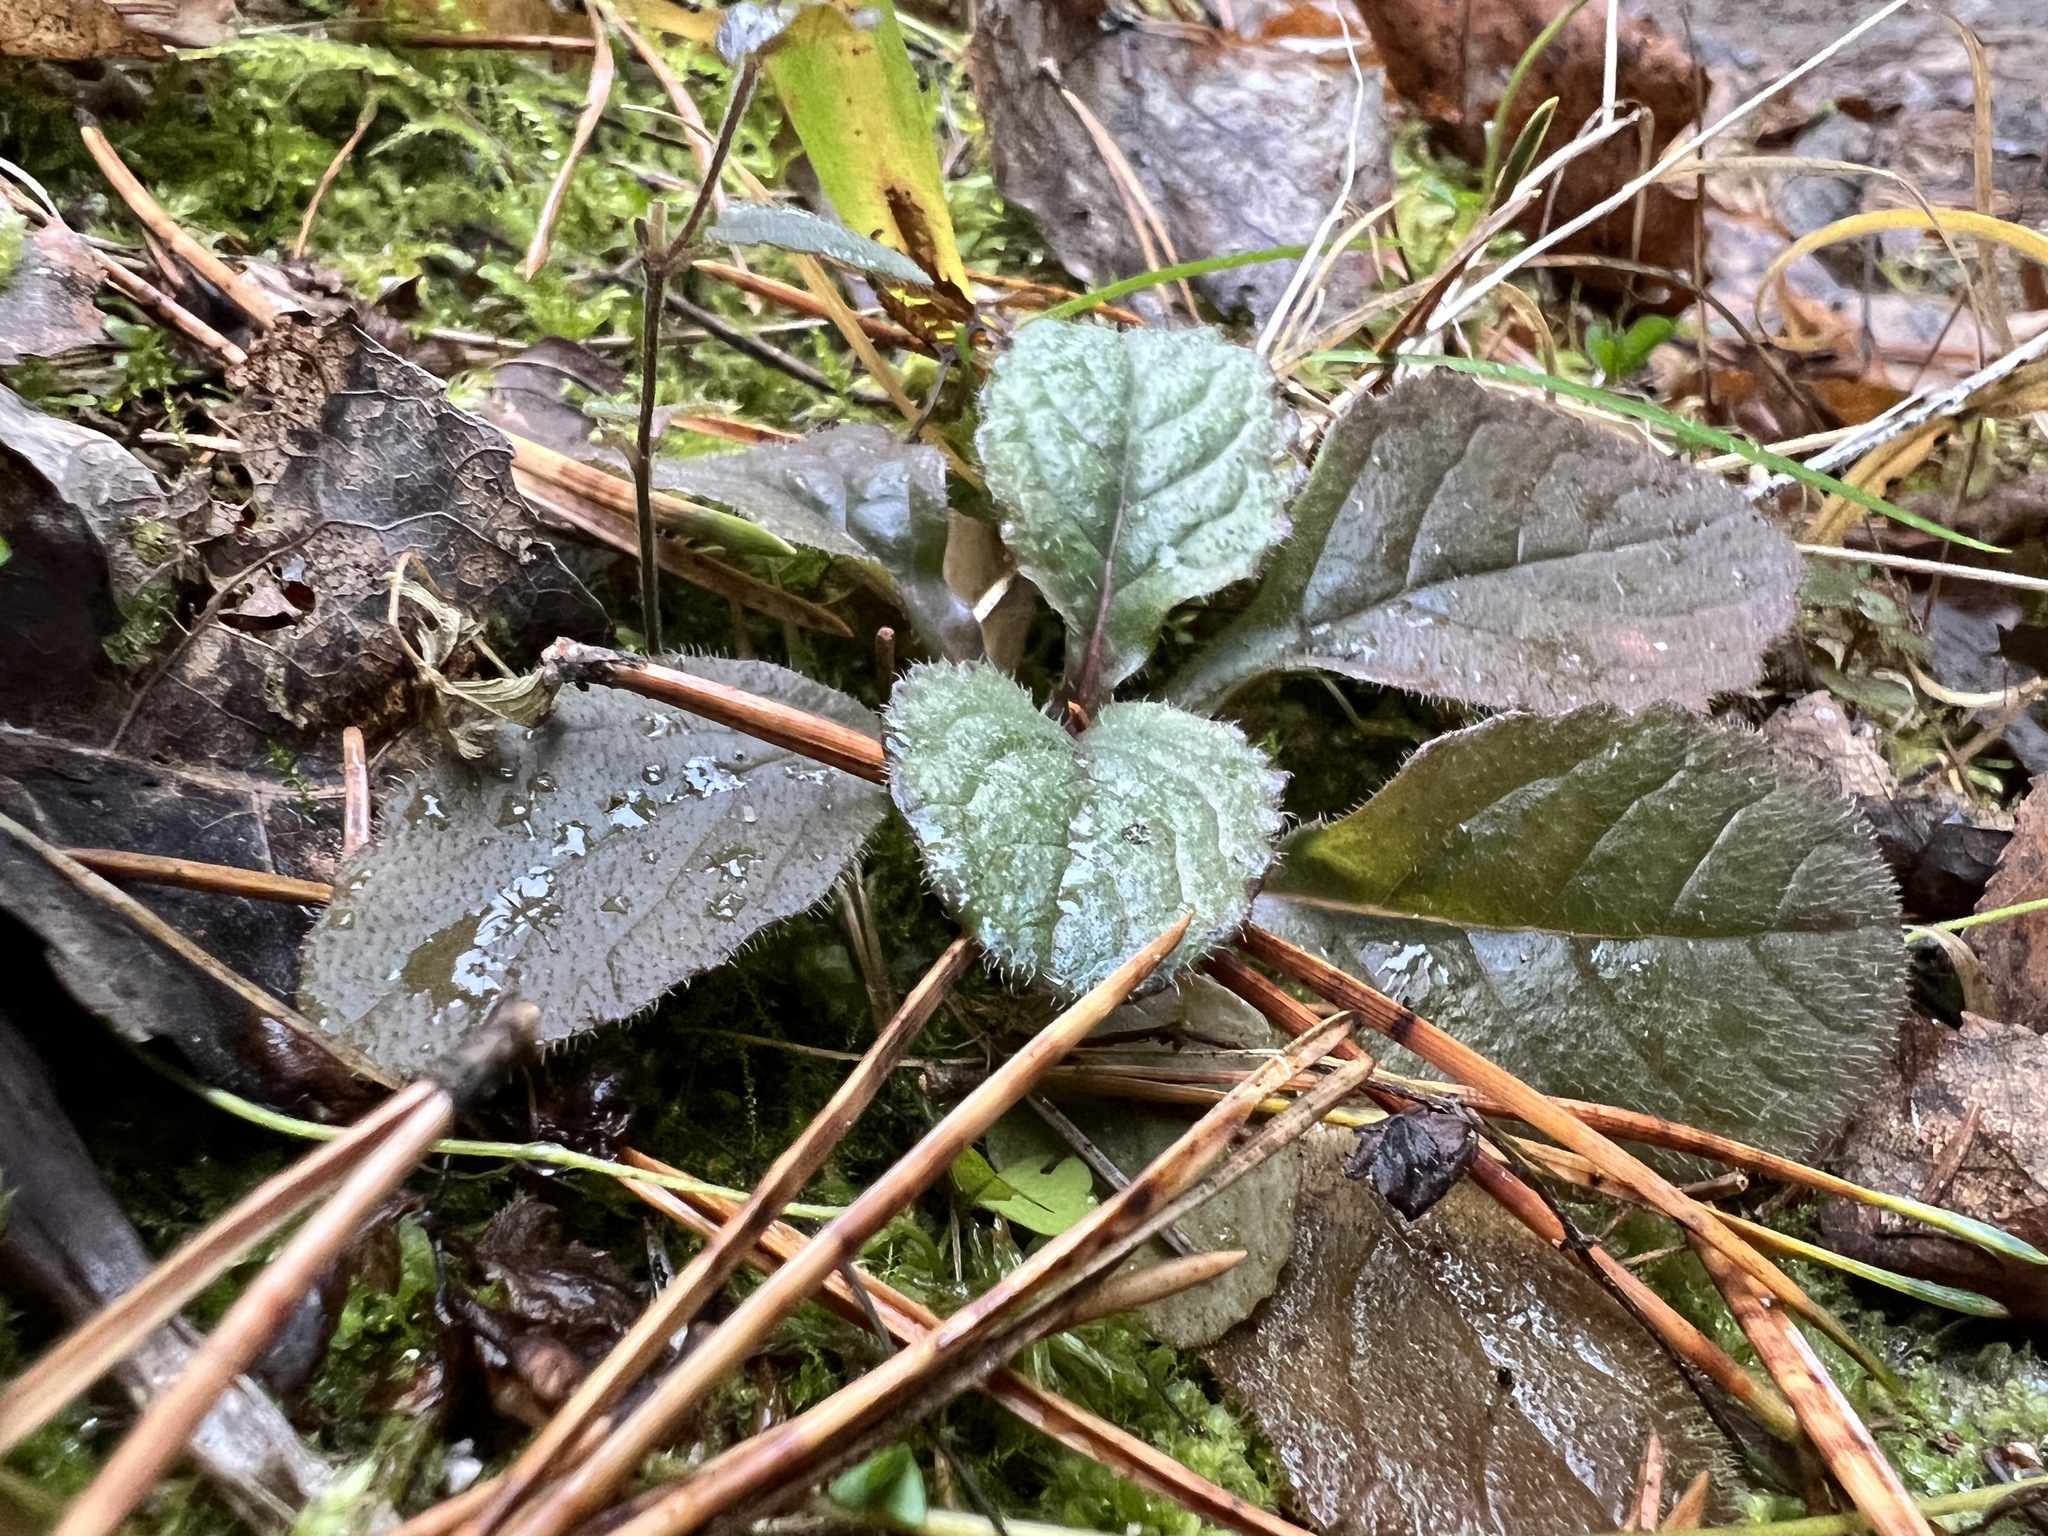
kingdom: Plantae
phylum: Tracheophyta
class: Magnoliopsida
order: Lamiales
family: Lamiaceae
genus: Ajuga
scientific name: Ajuga reptans
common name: Bugle
